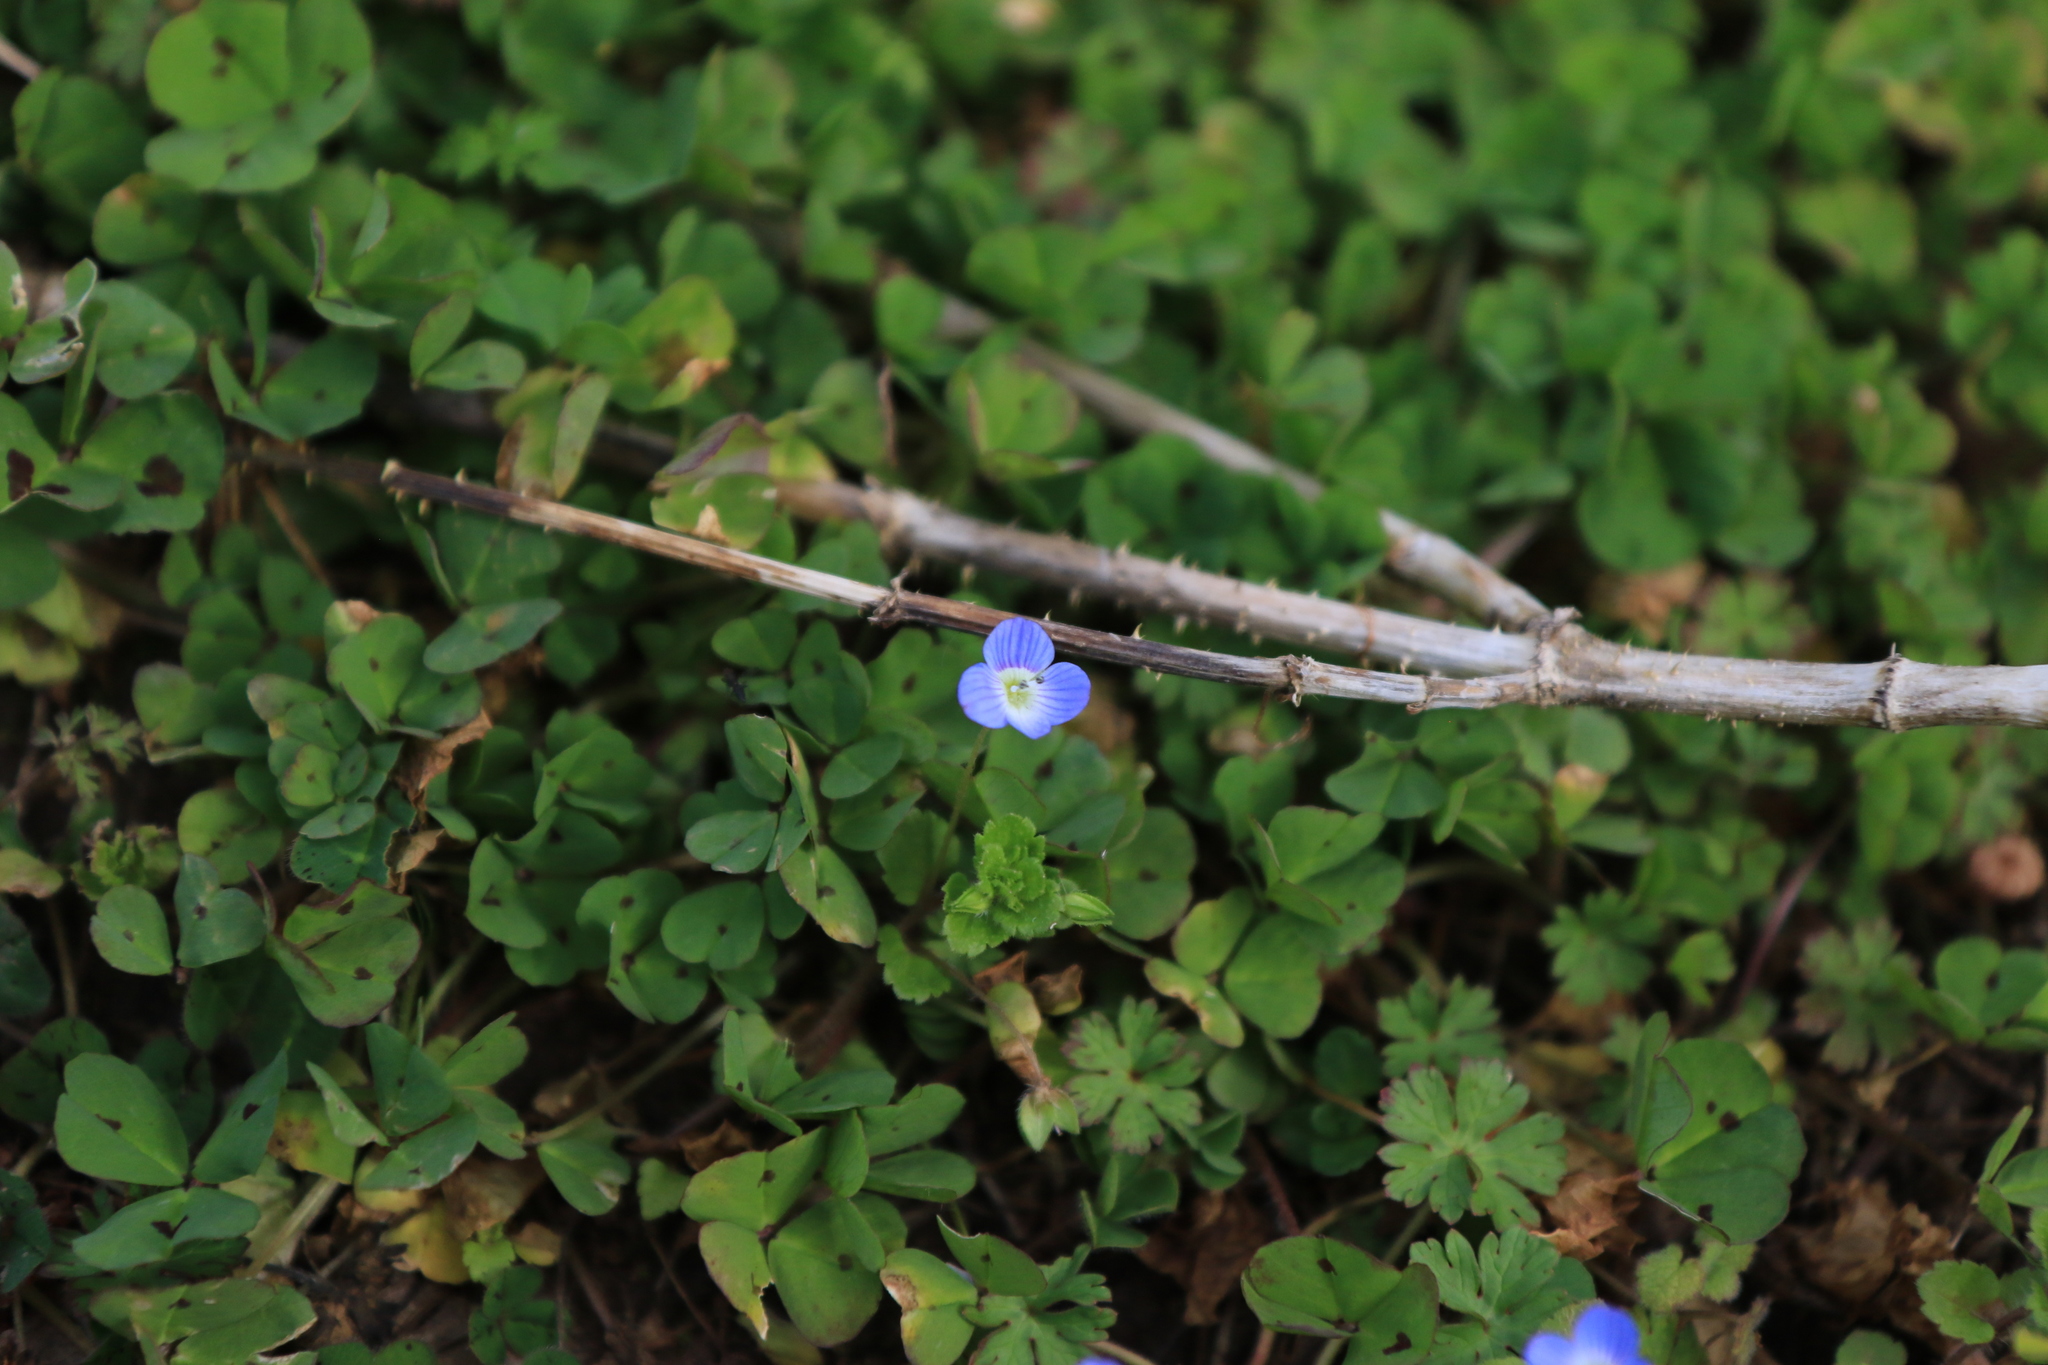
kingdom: Plantae
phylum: Tracheophyta
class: Magnoliopsida
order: Lamiales
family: Plantaginaceae
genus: Veronica
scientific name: Veronica persica
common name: Common field-speedwell
